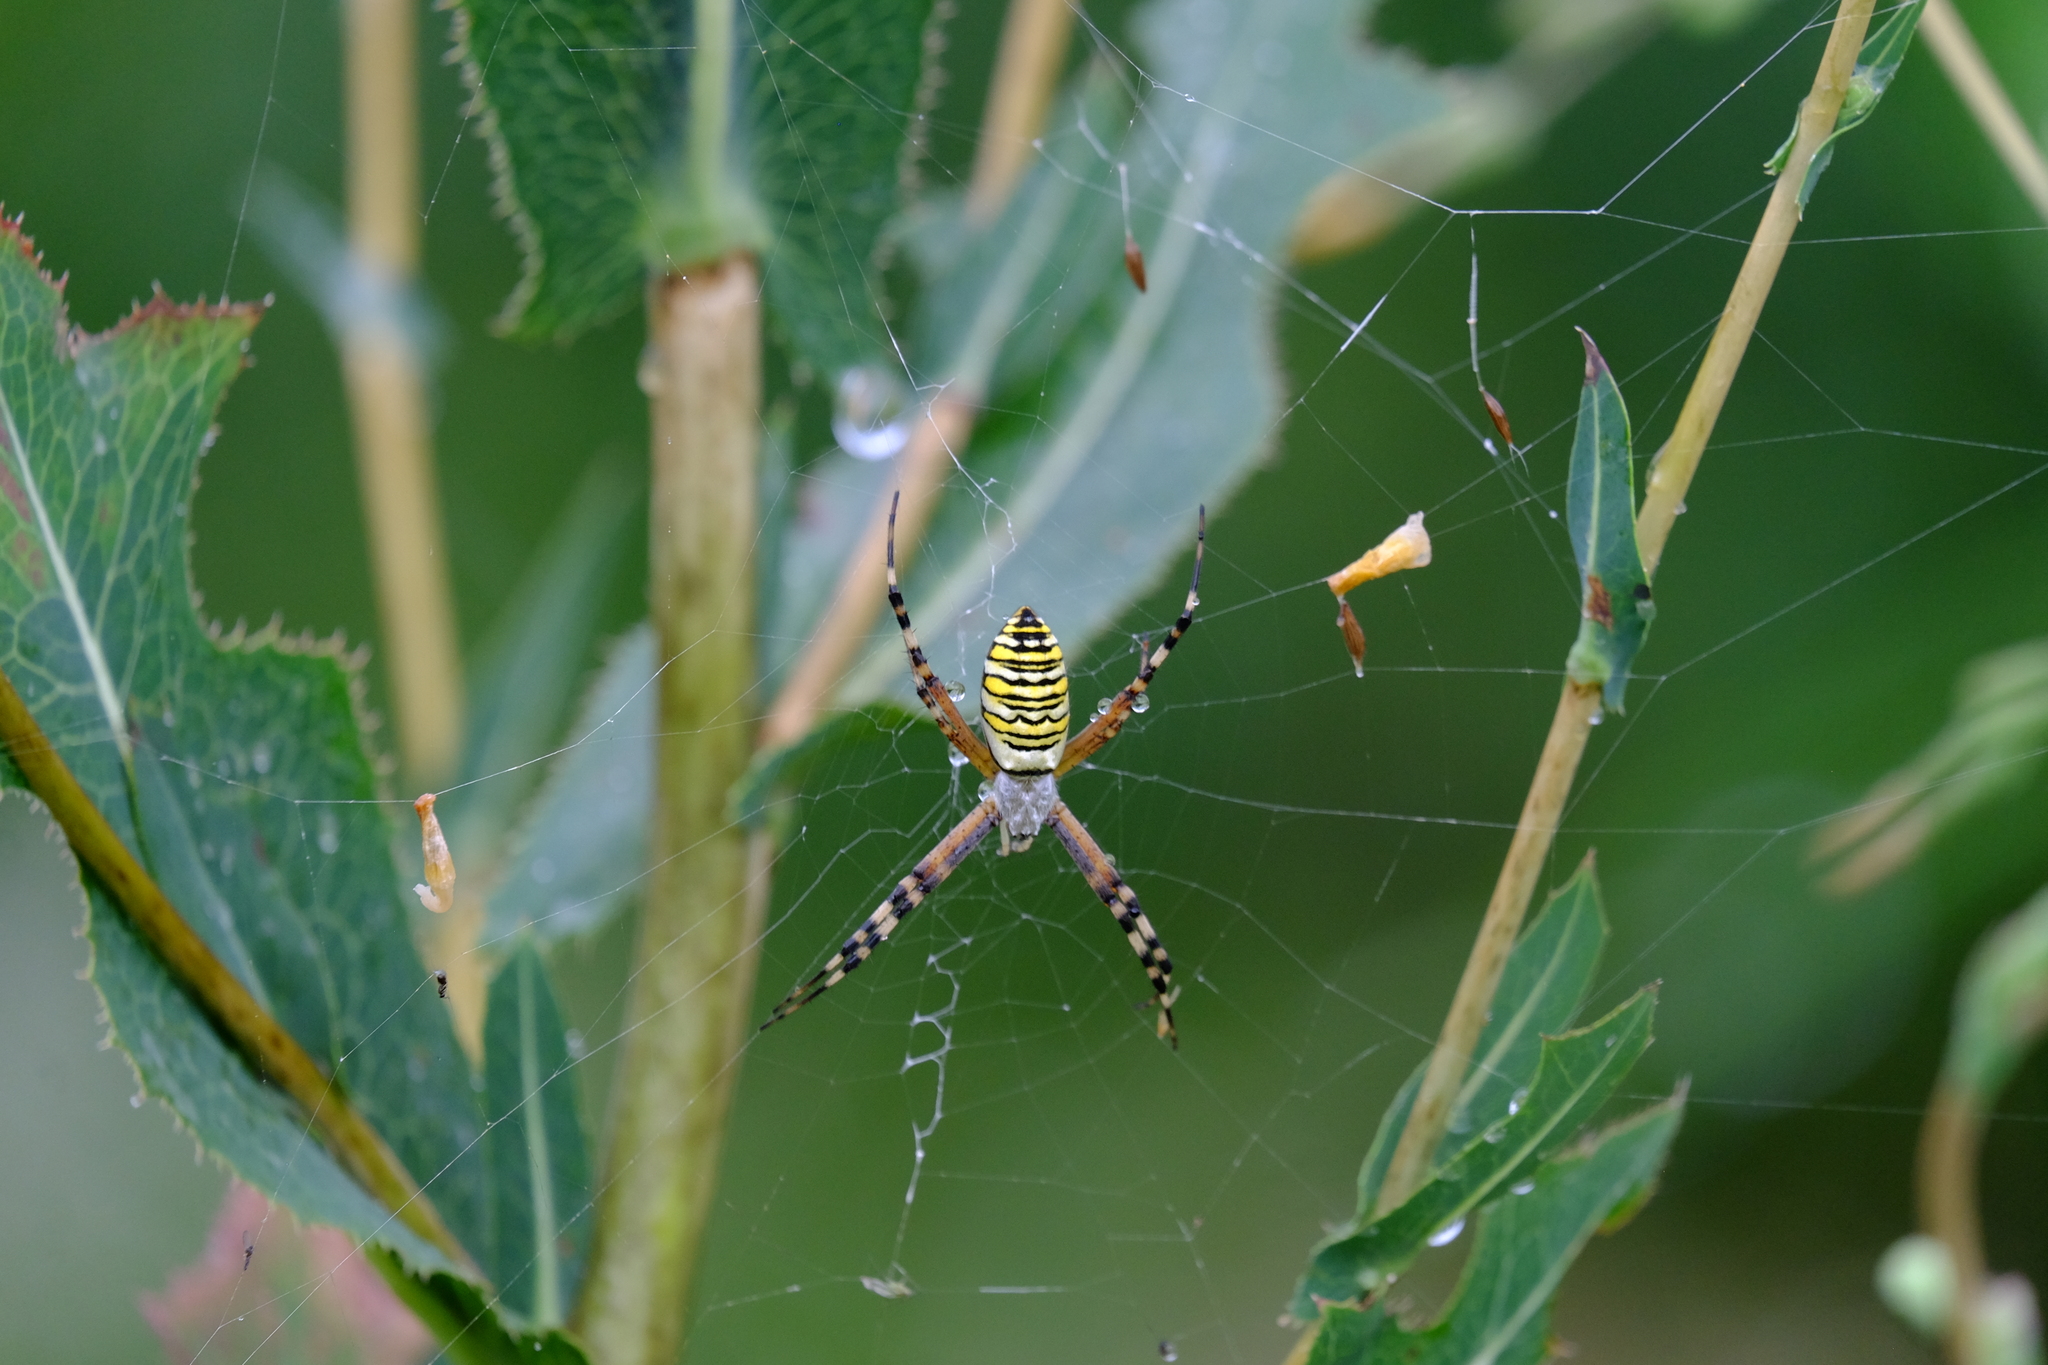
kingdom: Animalia
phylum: Arthropoda
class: Arachnida
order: Araneae
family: Araneidae
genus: Argiope
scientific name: Argiope bruennichi
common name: Wasp spider
